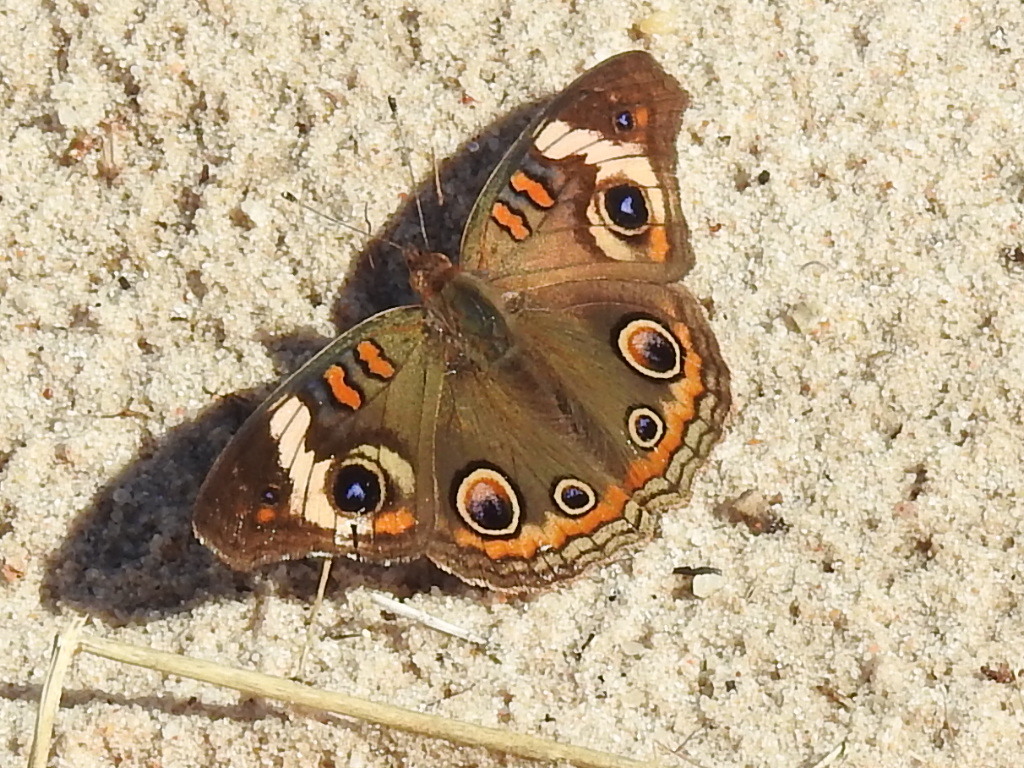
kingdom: Animalia
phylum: Arthropoda
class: Insecta
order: Lepidoptera
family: Nymphalidae
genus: Junonia
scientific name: Junonia coenia
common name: Common buckeye
